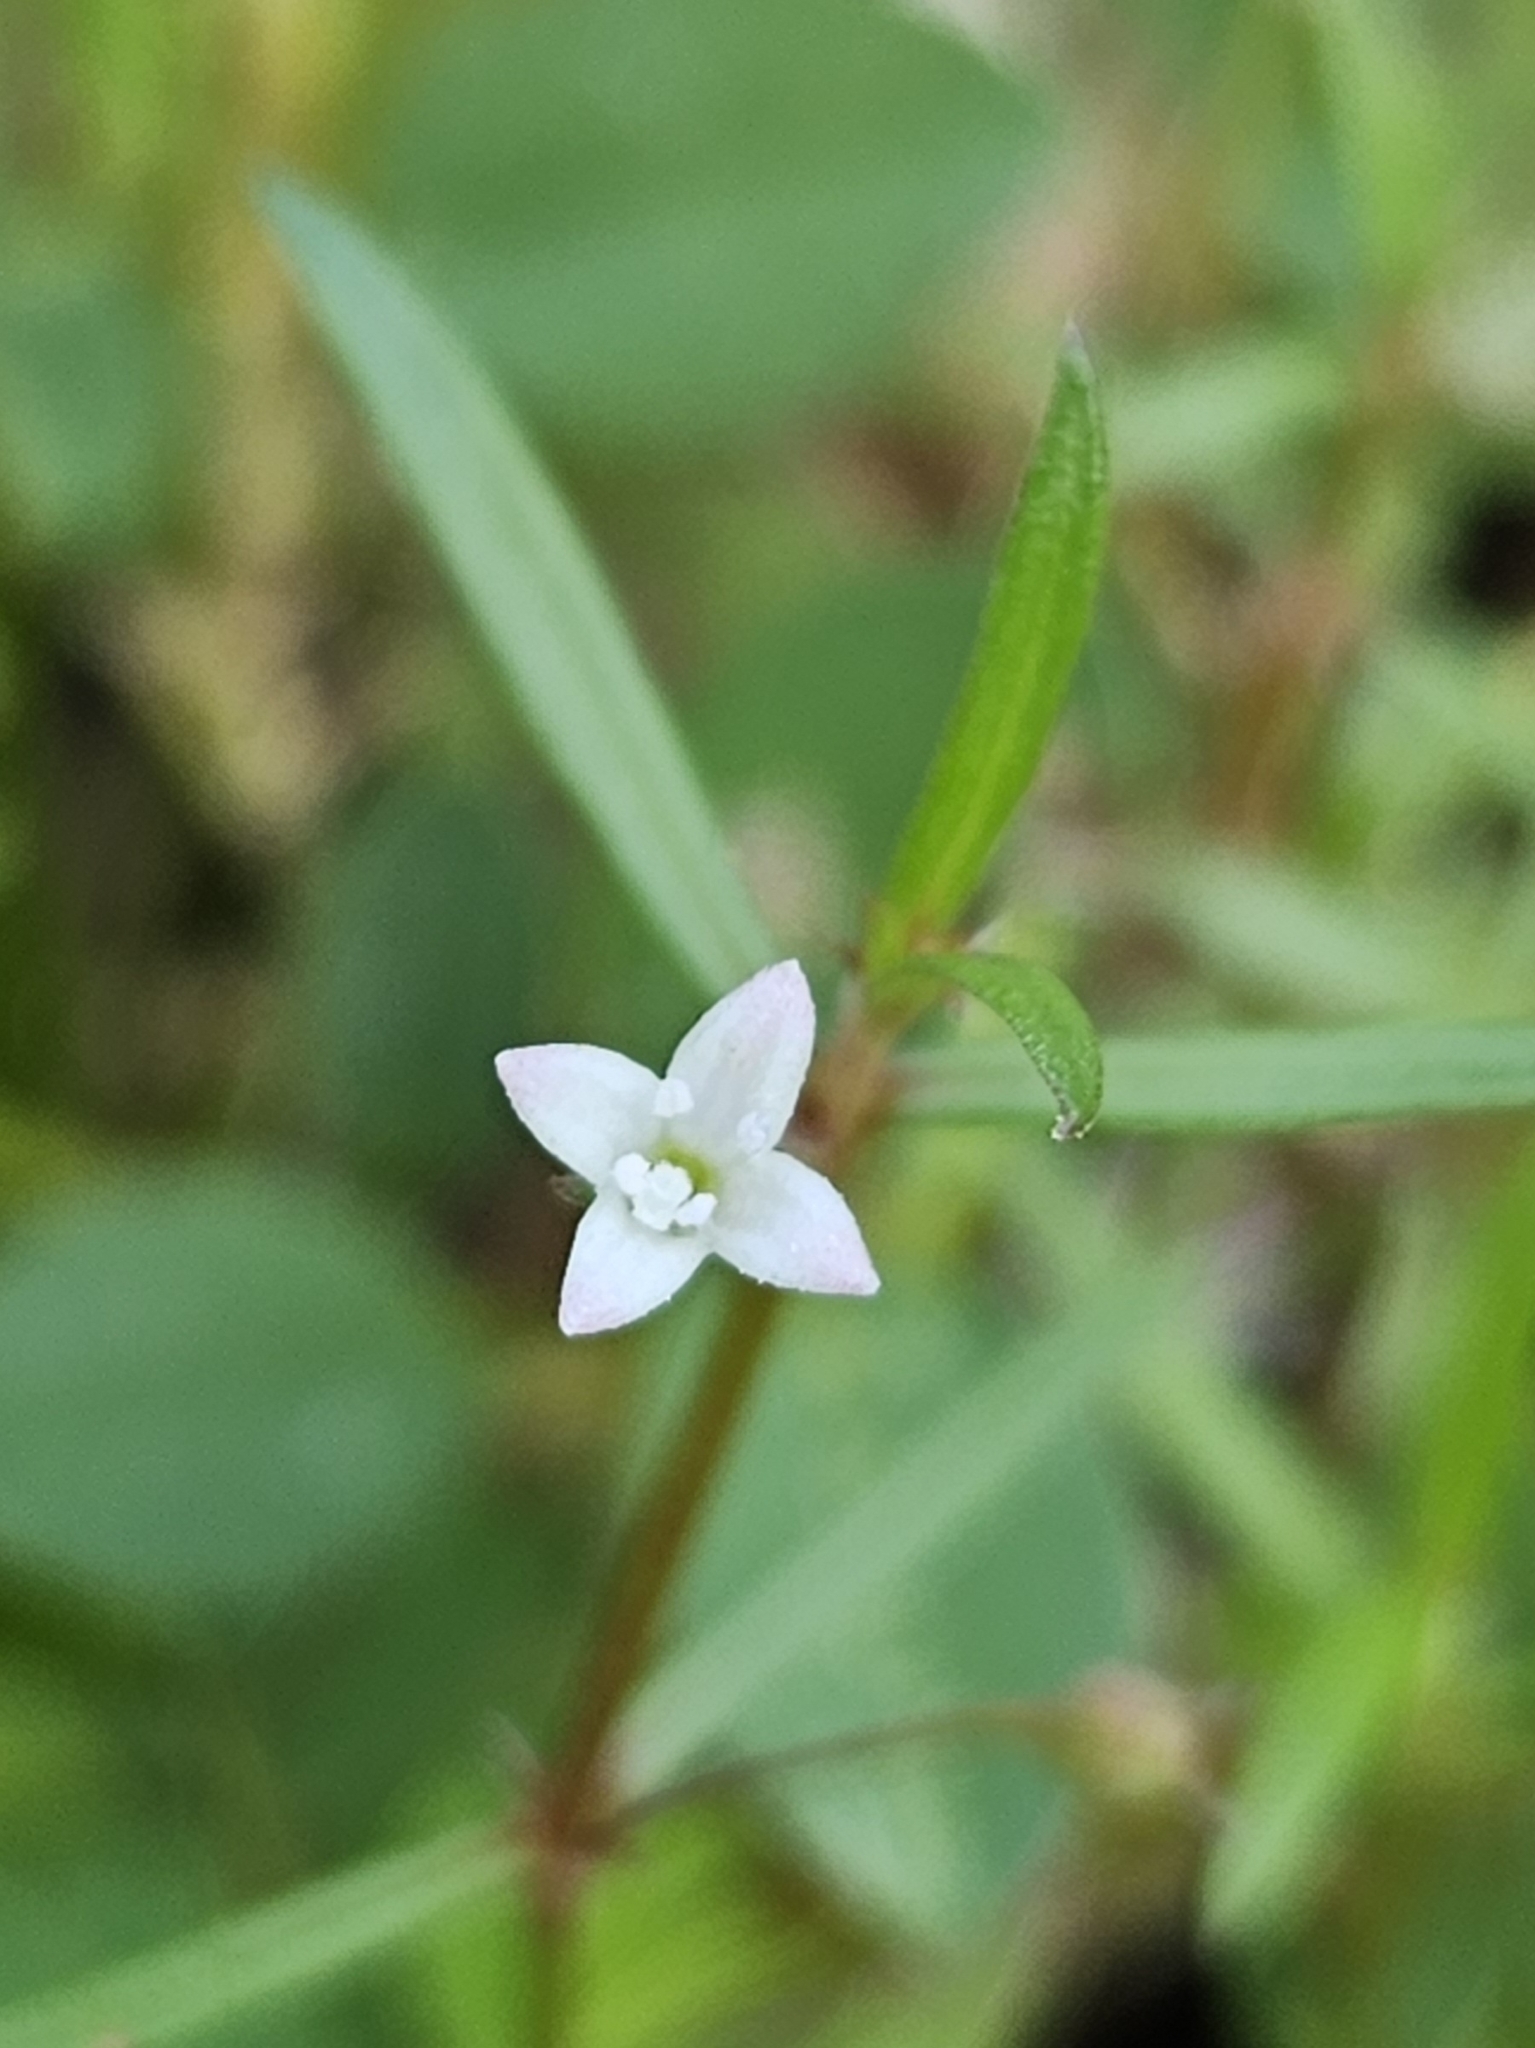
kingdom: Plantae
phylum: Tracheophyta
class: Magnoliopsida
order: Gentianales
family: Rubiaceae
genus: Scleromitrion
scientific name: Scleromitrion diffusum
